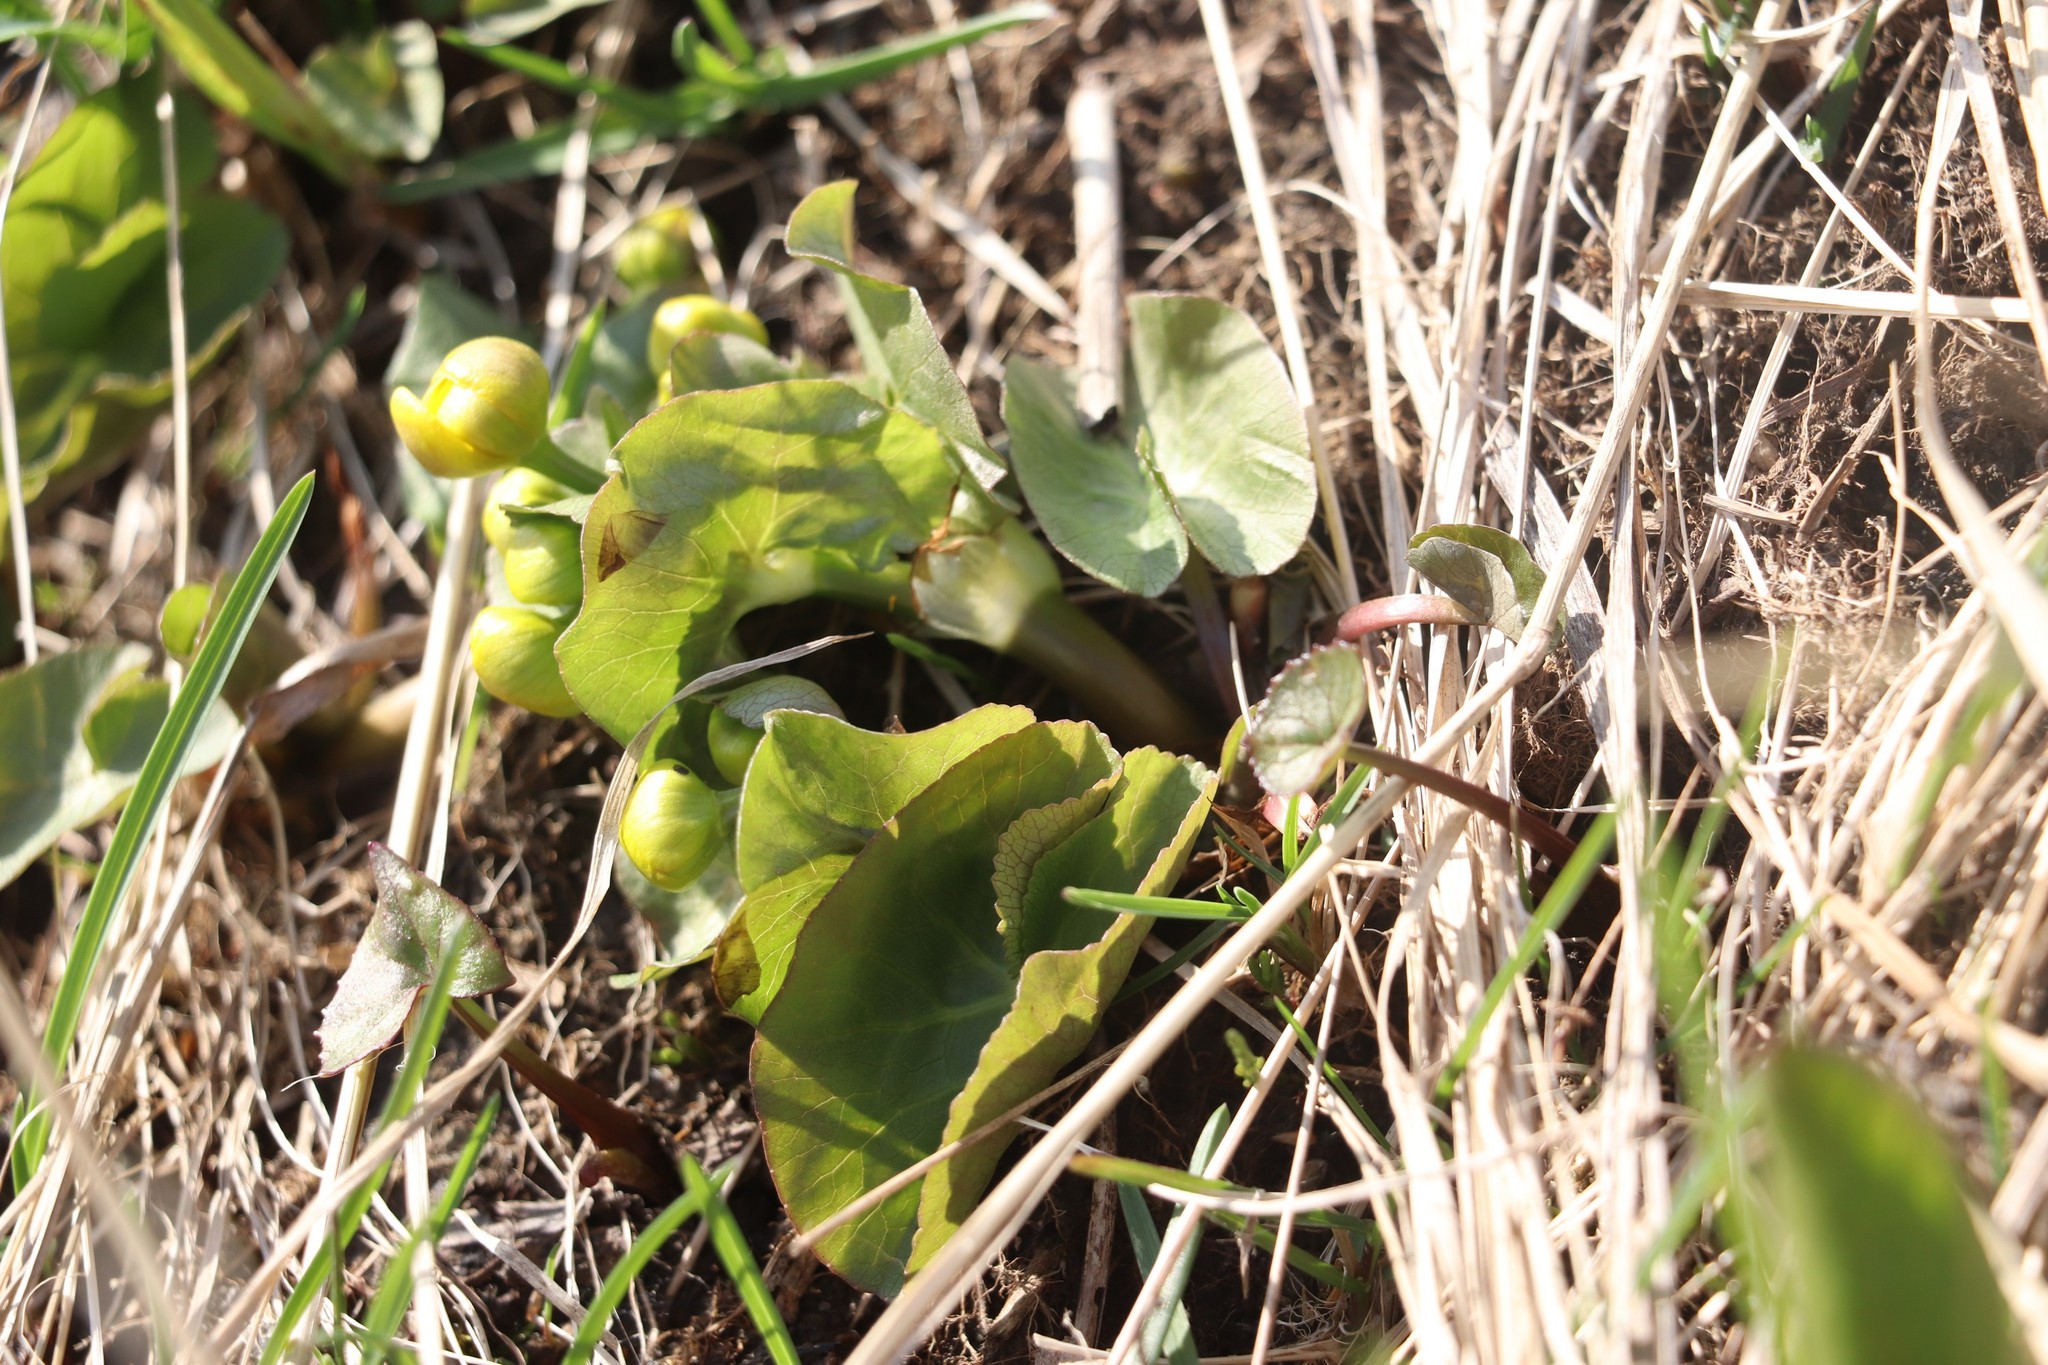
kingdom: Plantae
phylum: Tracheophyta
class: Magnoliopsida
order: Ranunculales
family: Ranunculaceae
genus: Caltha
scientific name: Caltha palustris
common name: Marsh marigold
